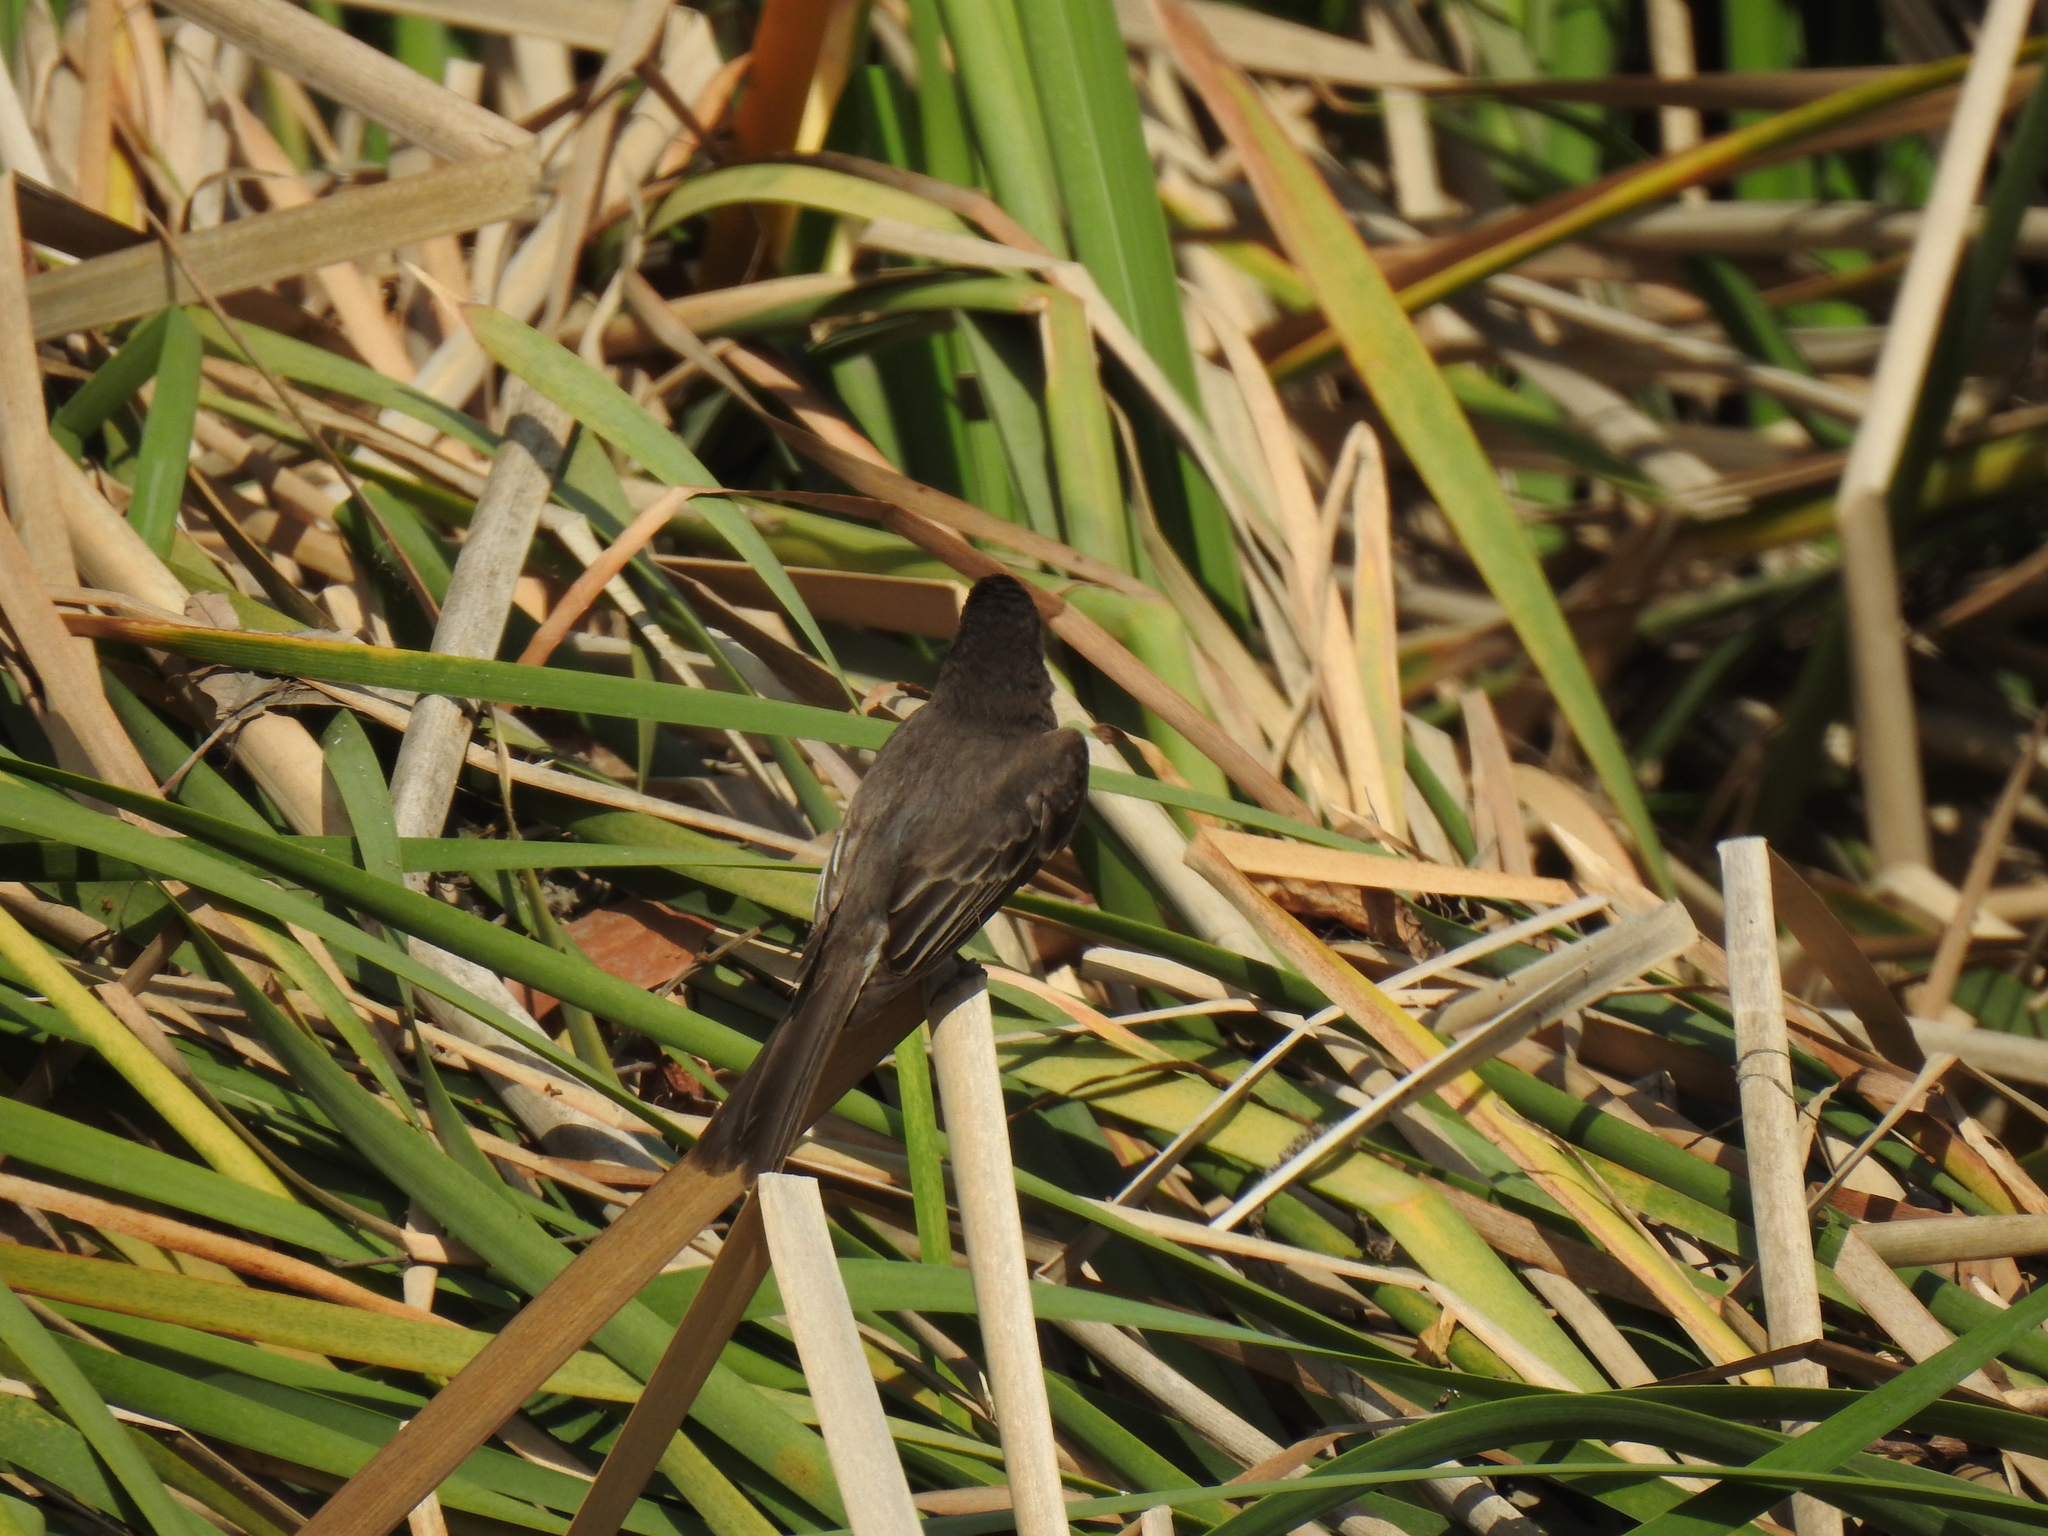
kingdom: Animalia
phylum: Chordata
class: Aves
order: Passeriformes
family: Tyrannidae
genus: Sayornis
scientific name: Sayornis nigricans
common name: Black phoebe
